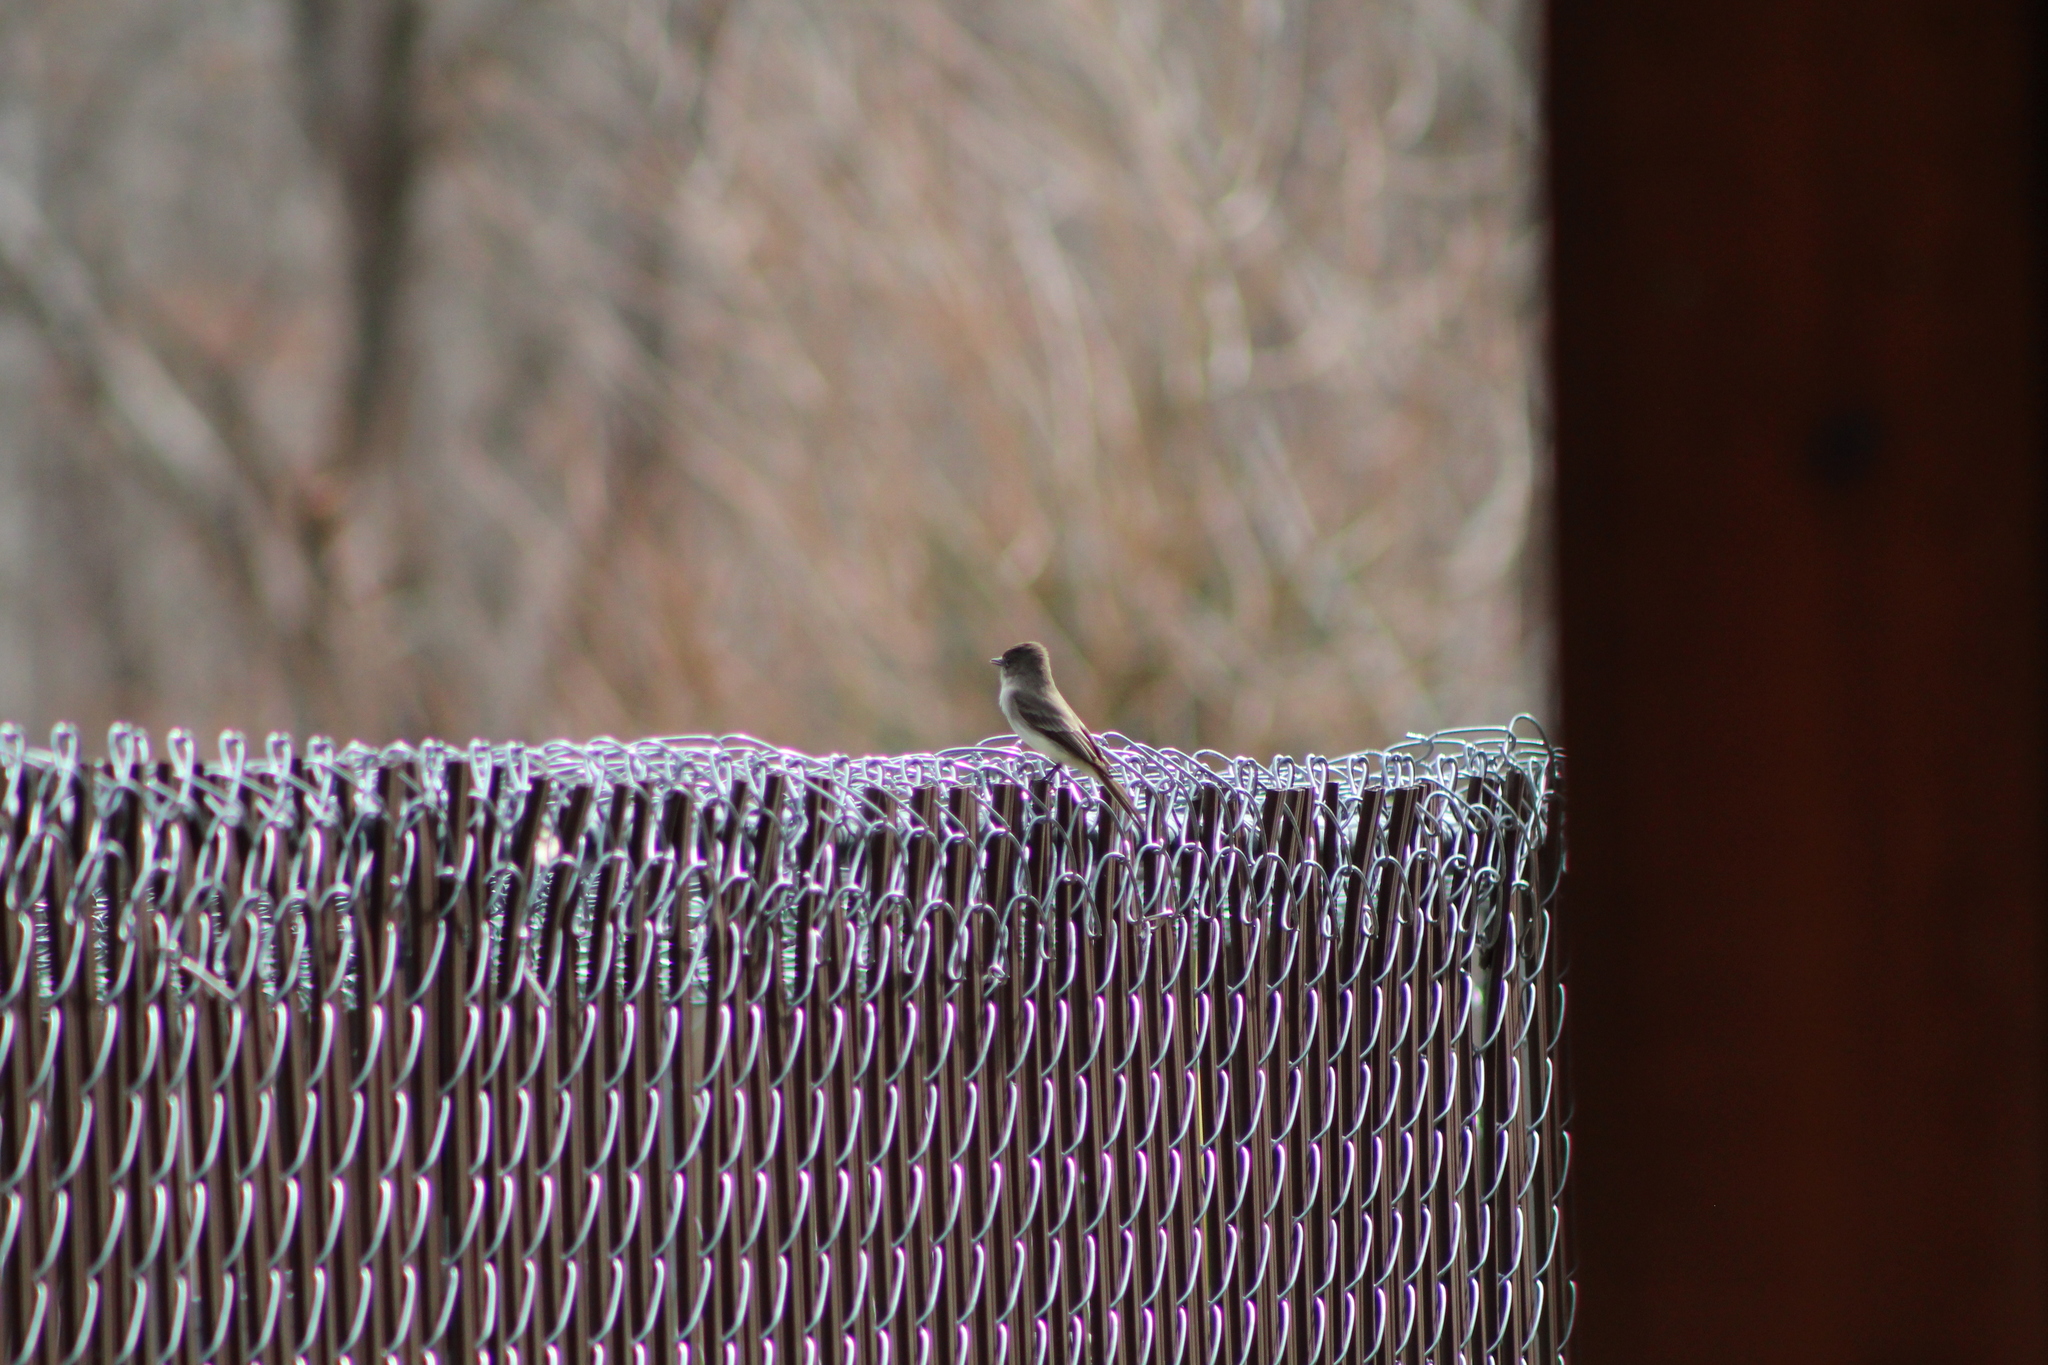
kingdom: Animalia
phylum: Chordata
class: Aves
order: Passeriformes
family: Tyrannidae
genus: Sayornis
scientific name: Sayornis phoebe
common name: Eastern phoebe
